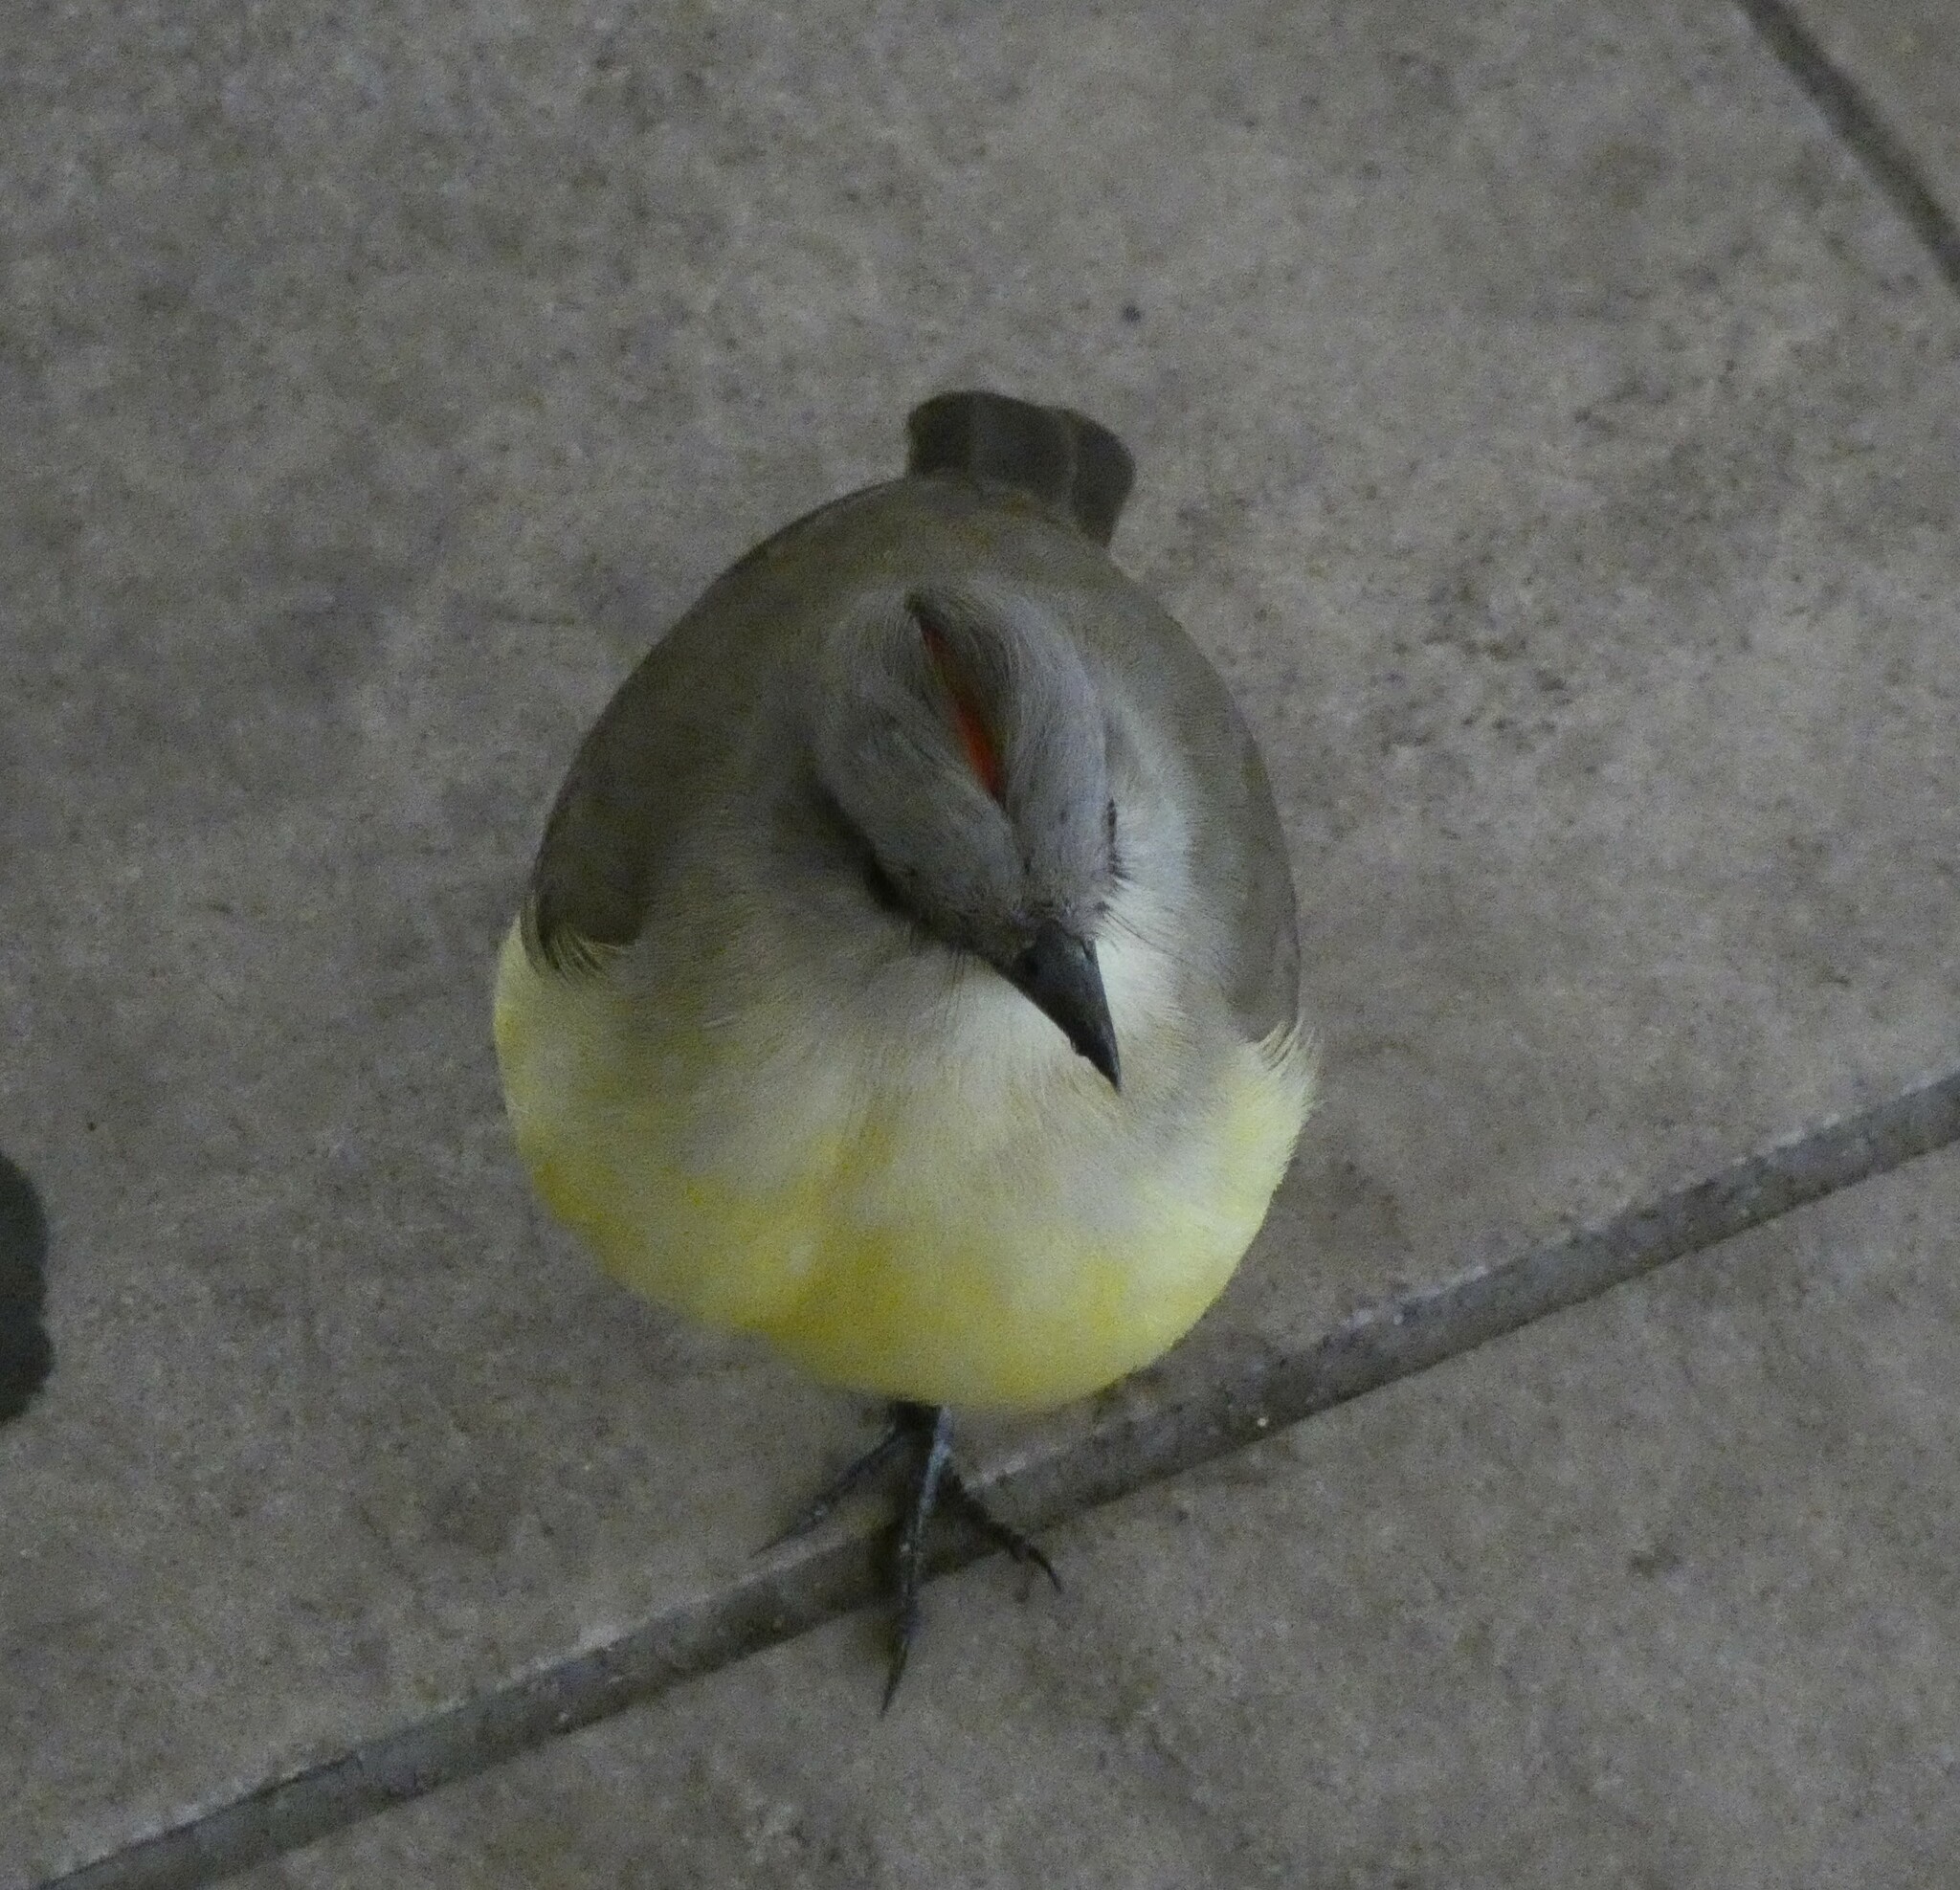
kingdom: Animalia
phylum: Chordata
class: Aves
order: Passeriformes
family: Tyrannidae
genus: Machetornis
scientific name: Machetornis rixosa
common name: Cattle tyrant
